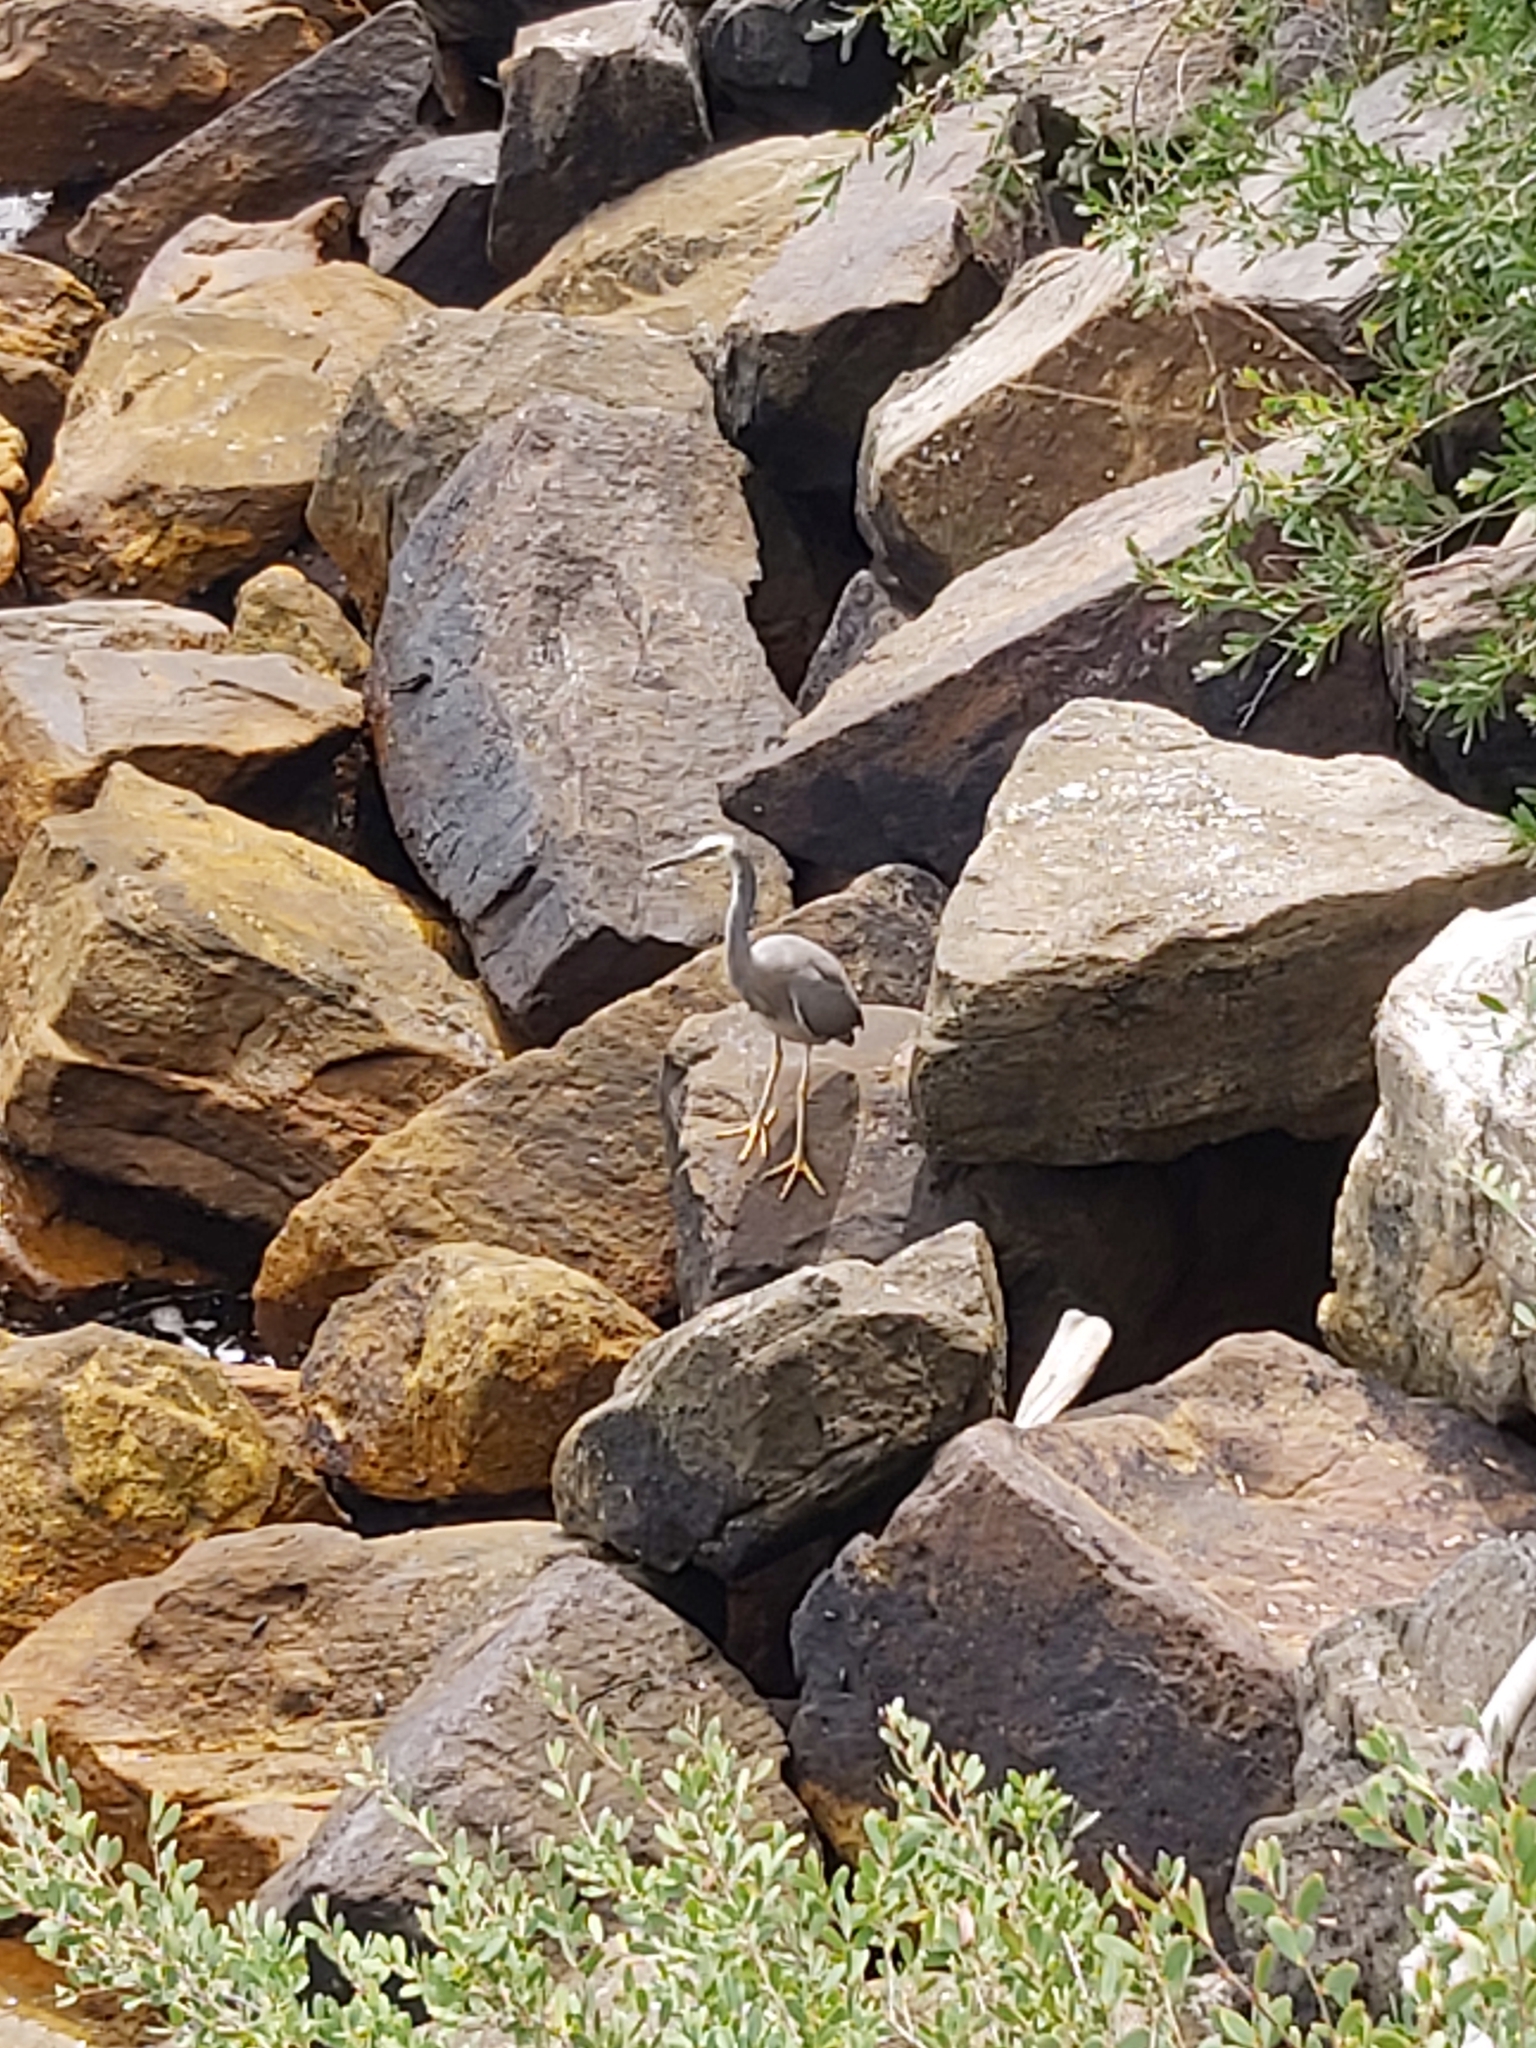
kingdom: Animalia
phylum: Chordata
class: Aves
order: Pelecaniformes
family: Ardeidae
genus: Egretta
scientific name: Egretta novaehollandiae
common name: White-faced heron
